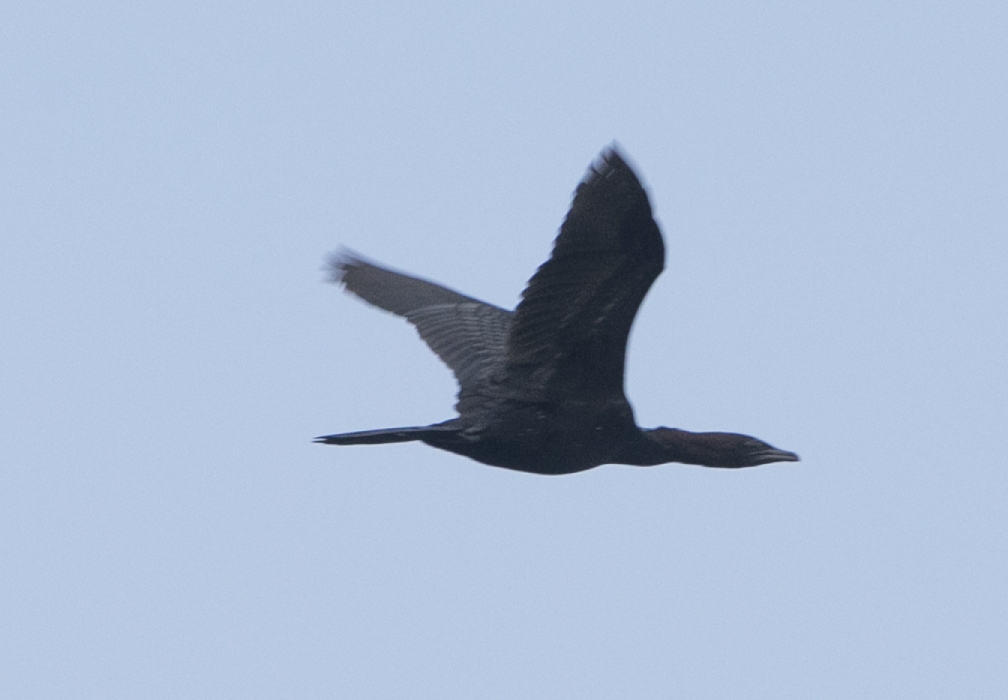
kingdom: Animalia
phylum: Chordata
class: Aves
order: Suliformes
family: Phalacrocoracidae
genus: Microcarbo
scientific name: Microcarbo pygmaeus
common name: Pygmy cormorant
